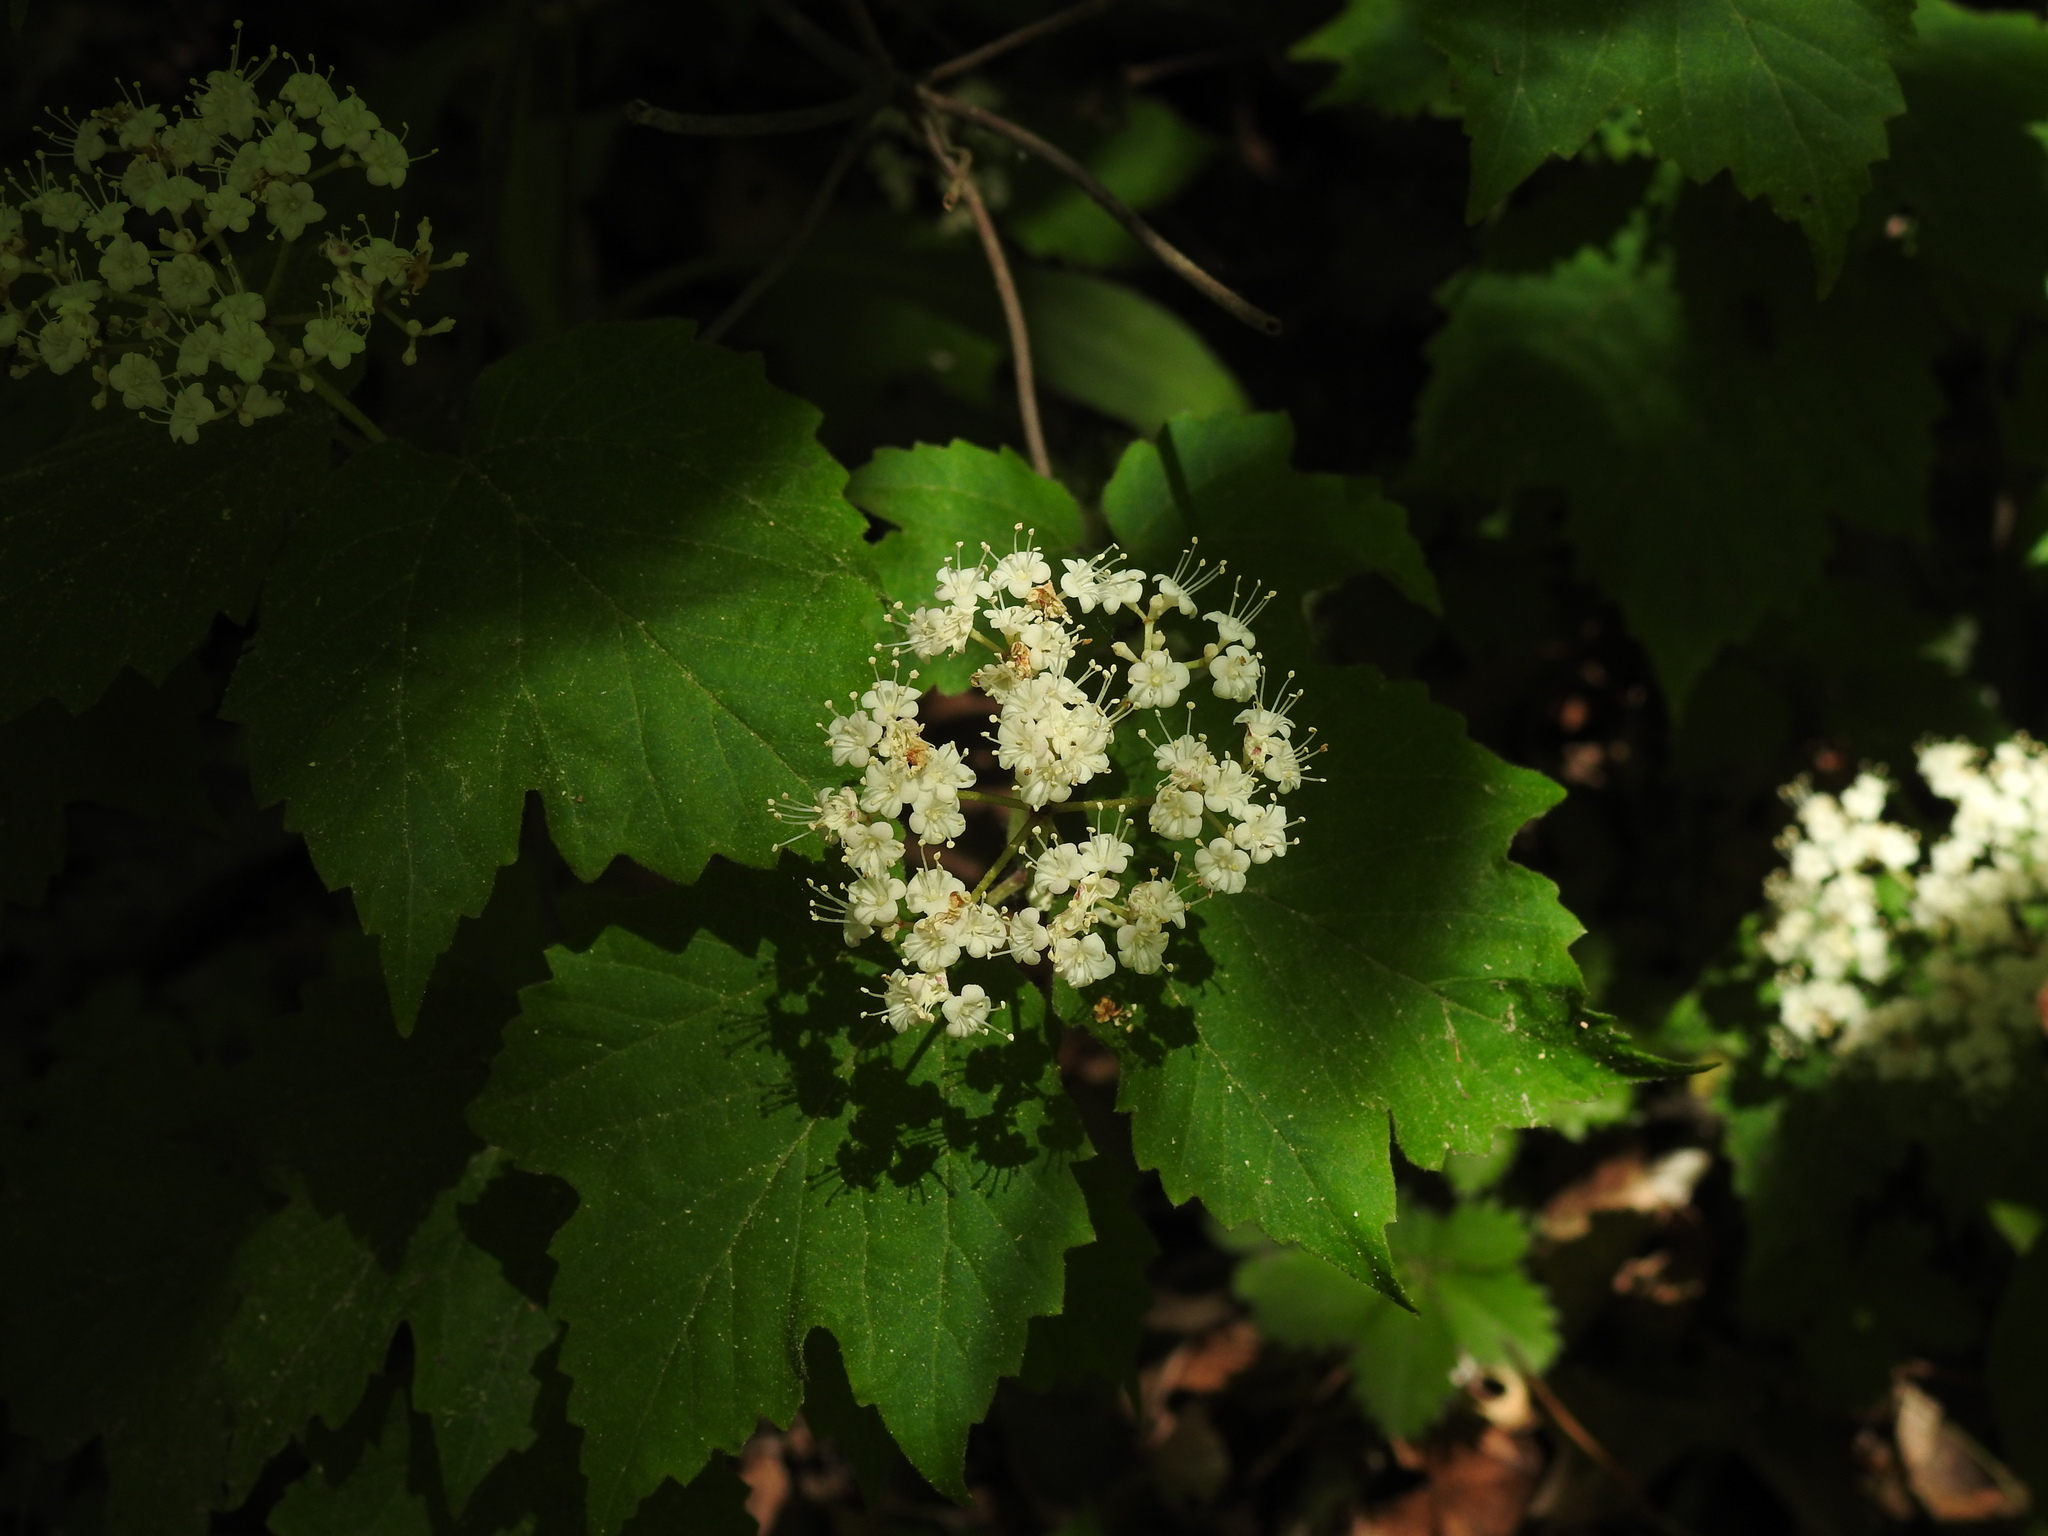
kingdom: Plantae
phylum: Tracheophyta
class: Magnoliopsida
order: Dipsacales
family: Viburnaceae
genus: Viburnum
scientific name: Viburnum acerifolium
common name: Dockmackie
